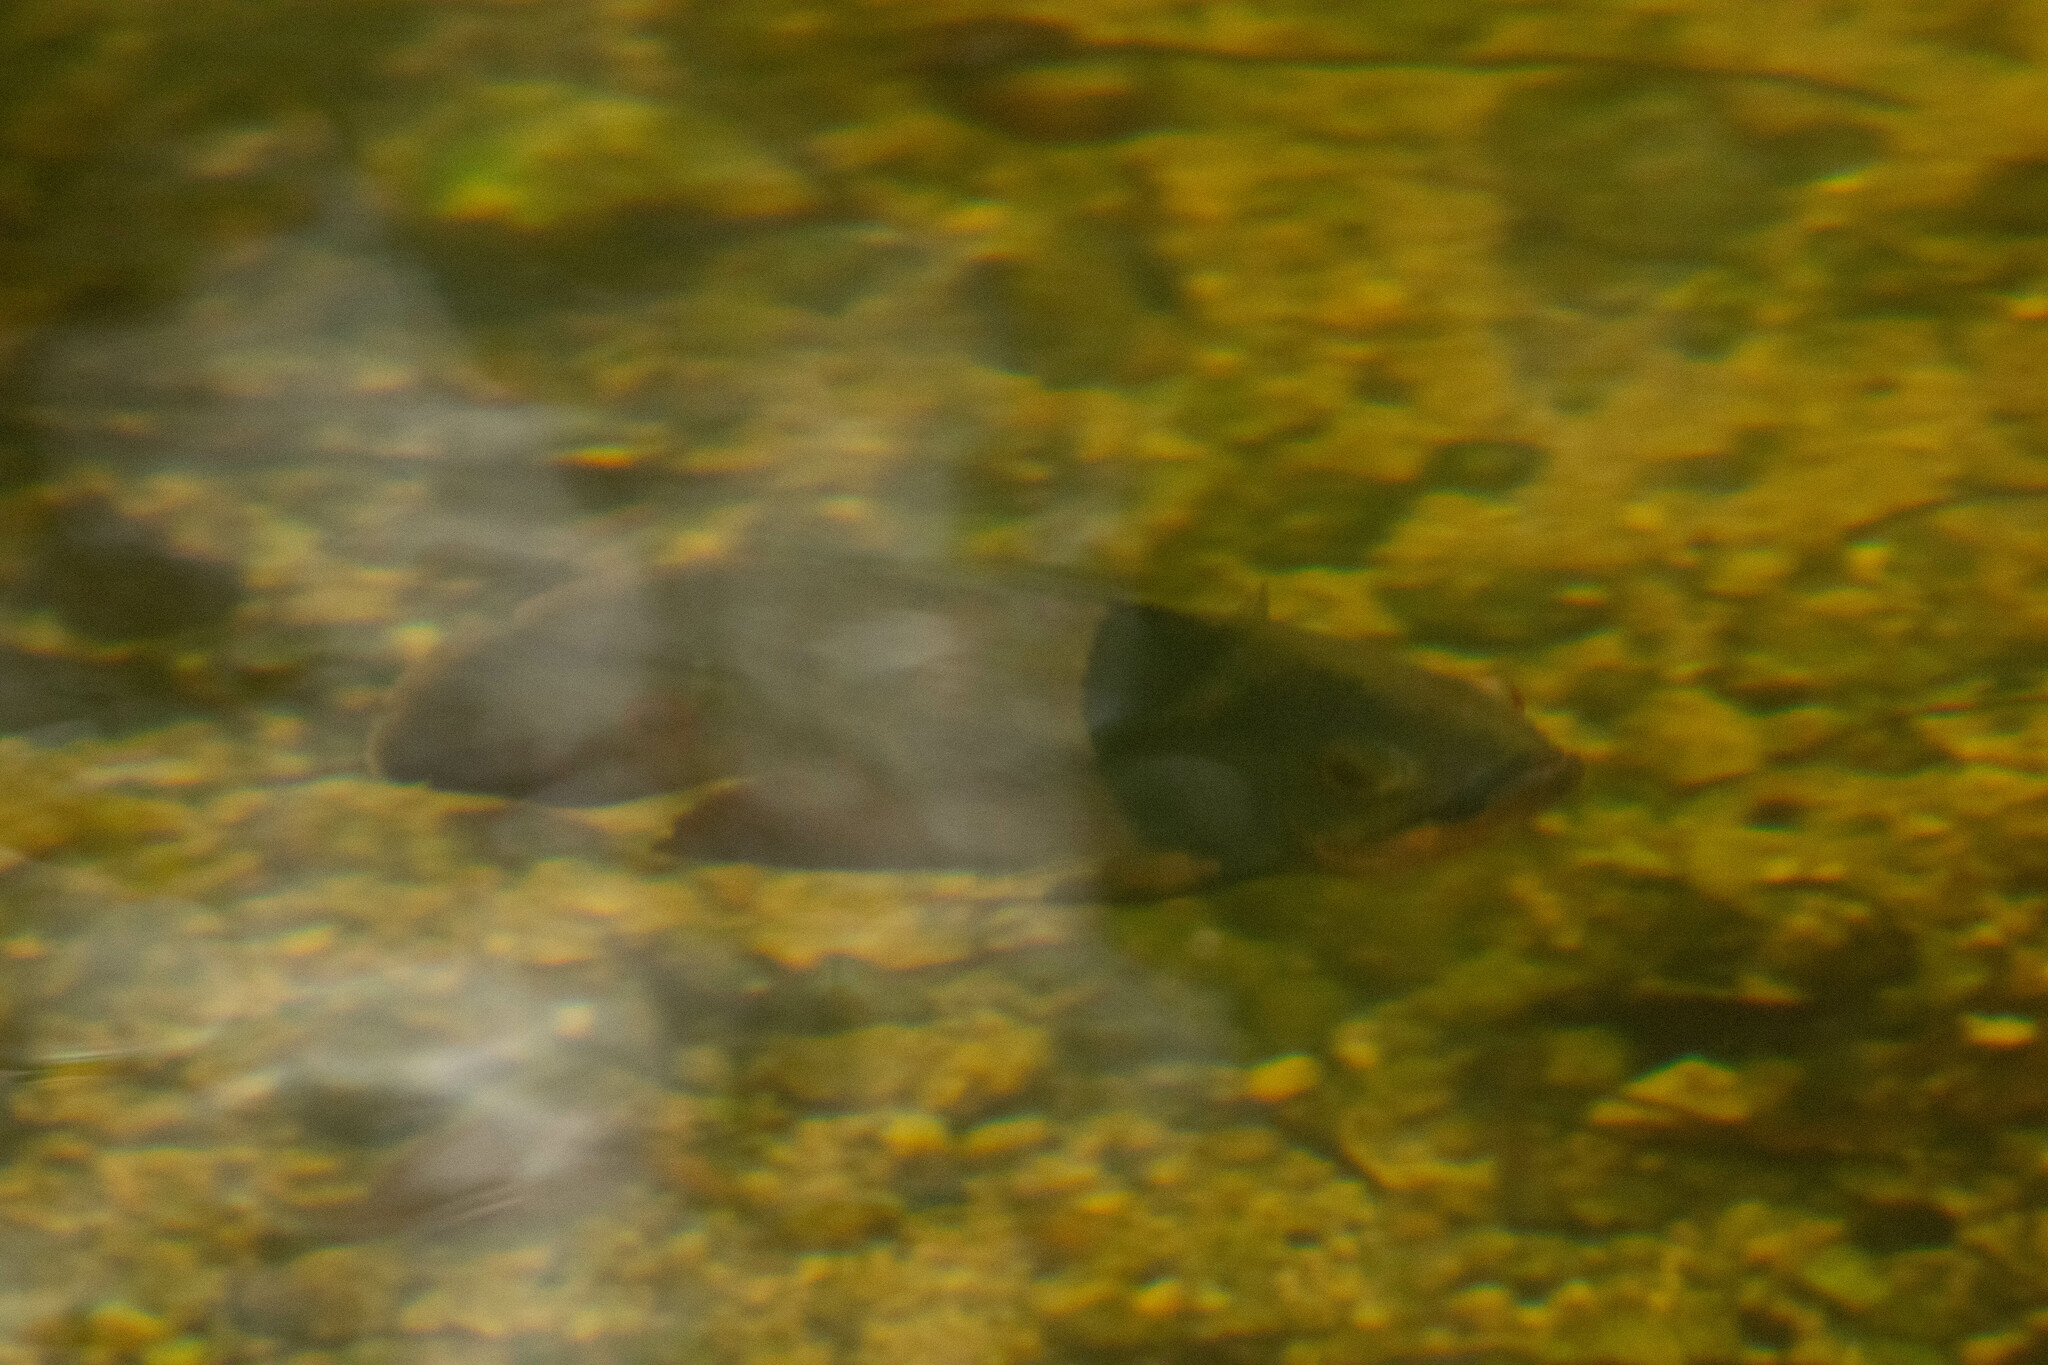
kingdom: Animalia
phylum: Chordata
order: Perciformes
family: Cichlidae
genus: Astronotus
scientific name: Astronotus ocellatus
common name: Oscar
